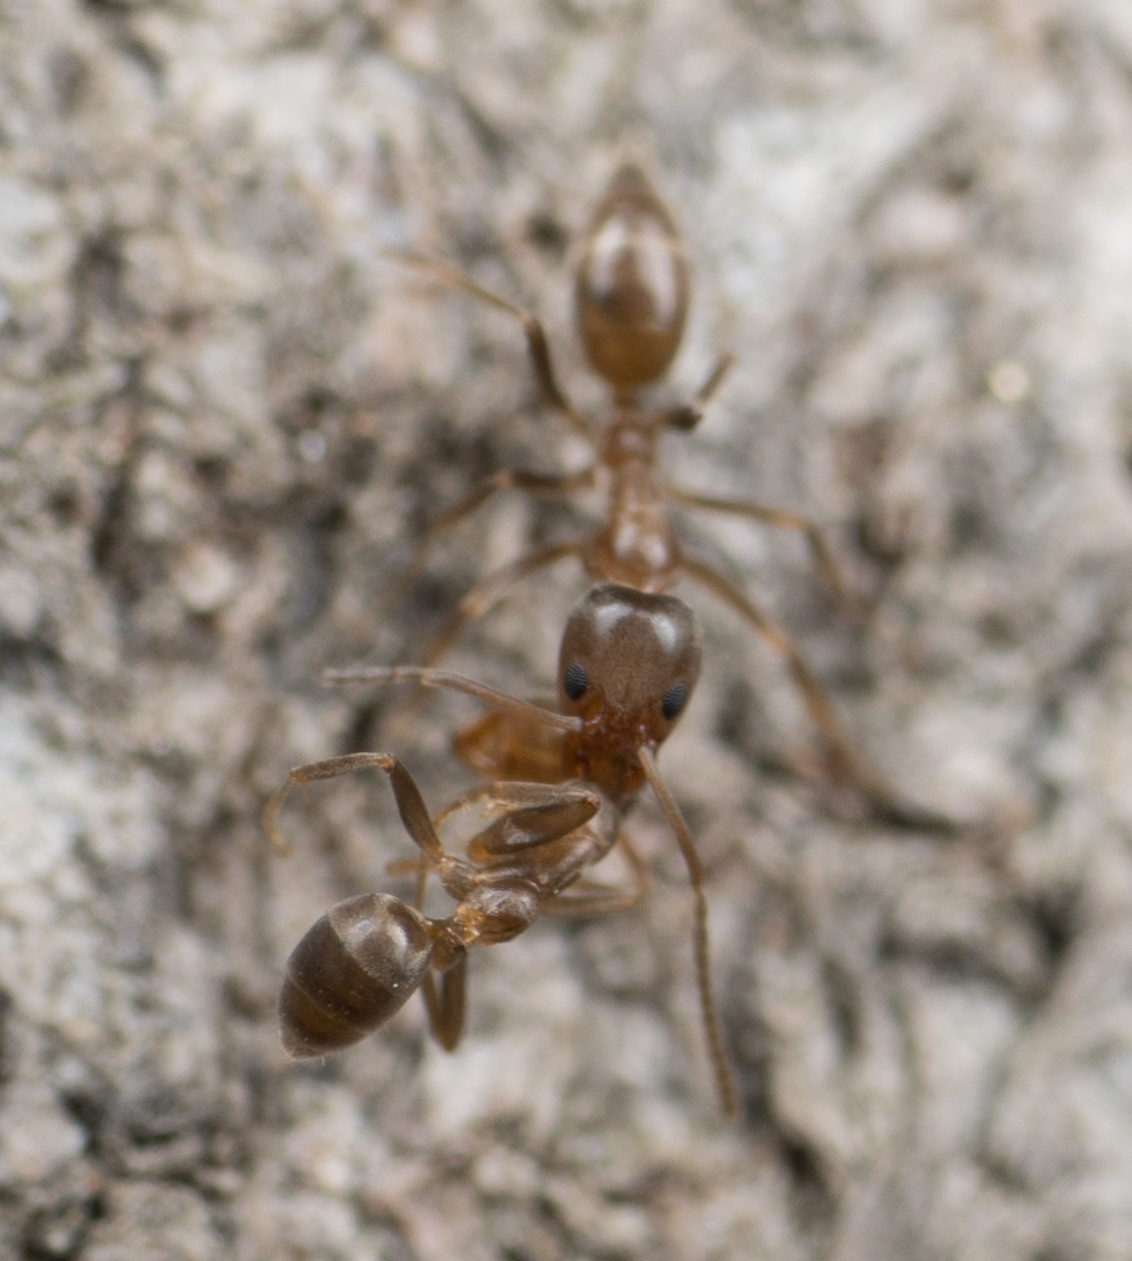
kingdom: Animalia
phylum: Arthropoda
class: Insecta
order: Hymenoptera
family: Formicidae
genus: Linepithema
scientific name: Linepithema humile
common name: Argentine ant
